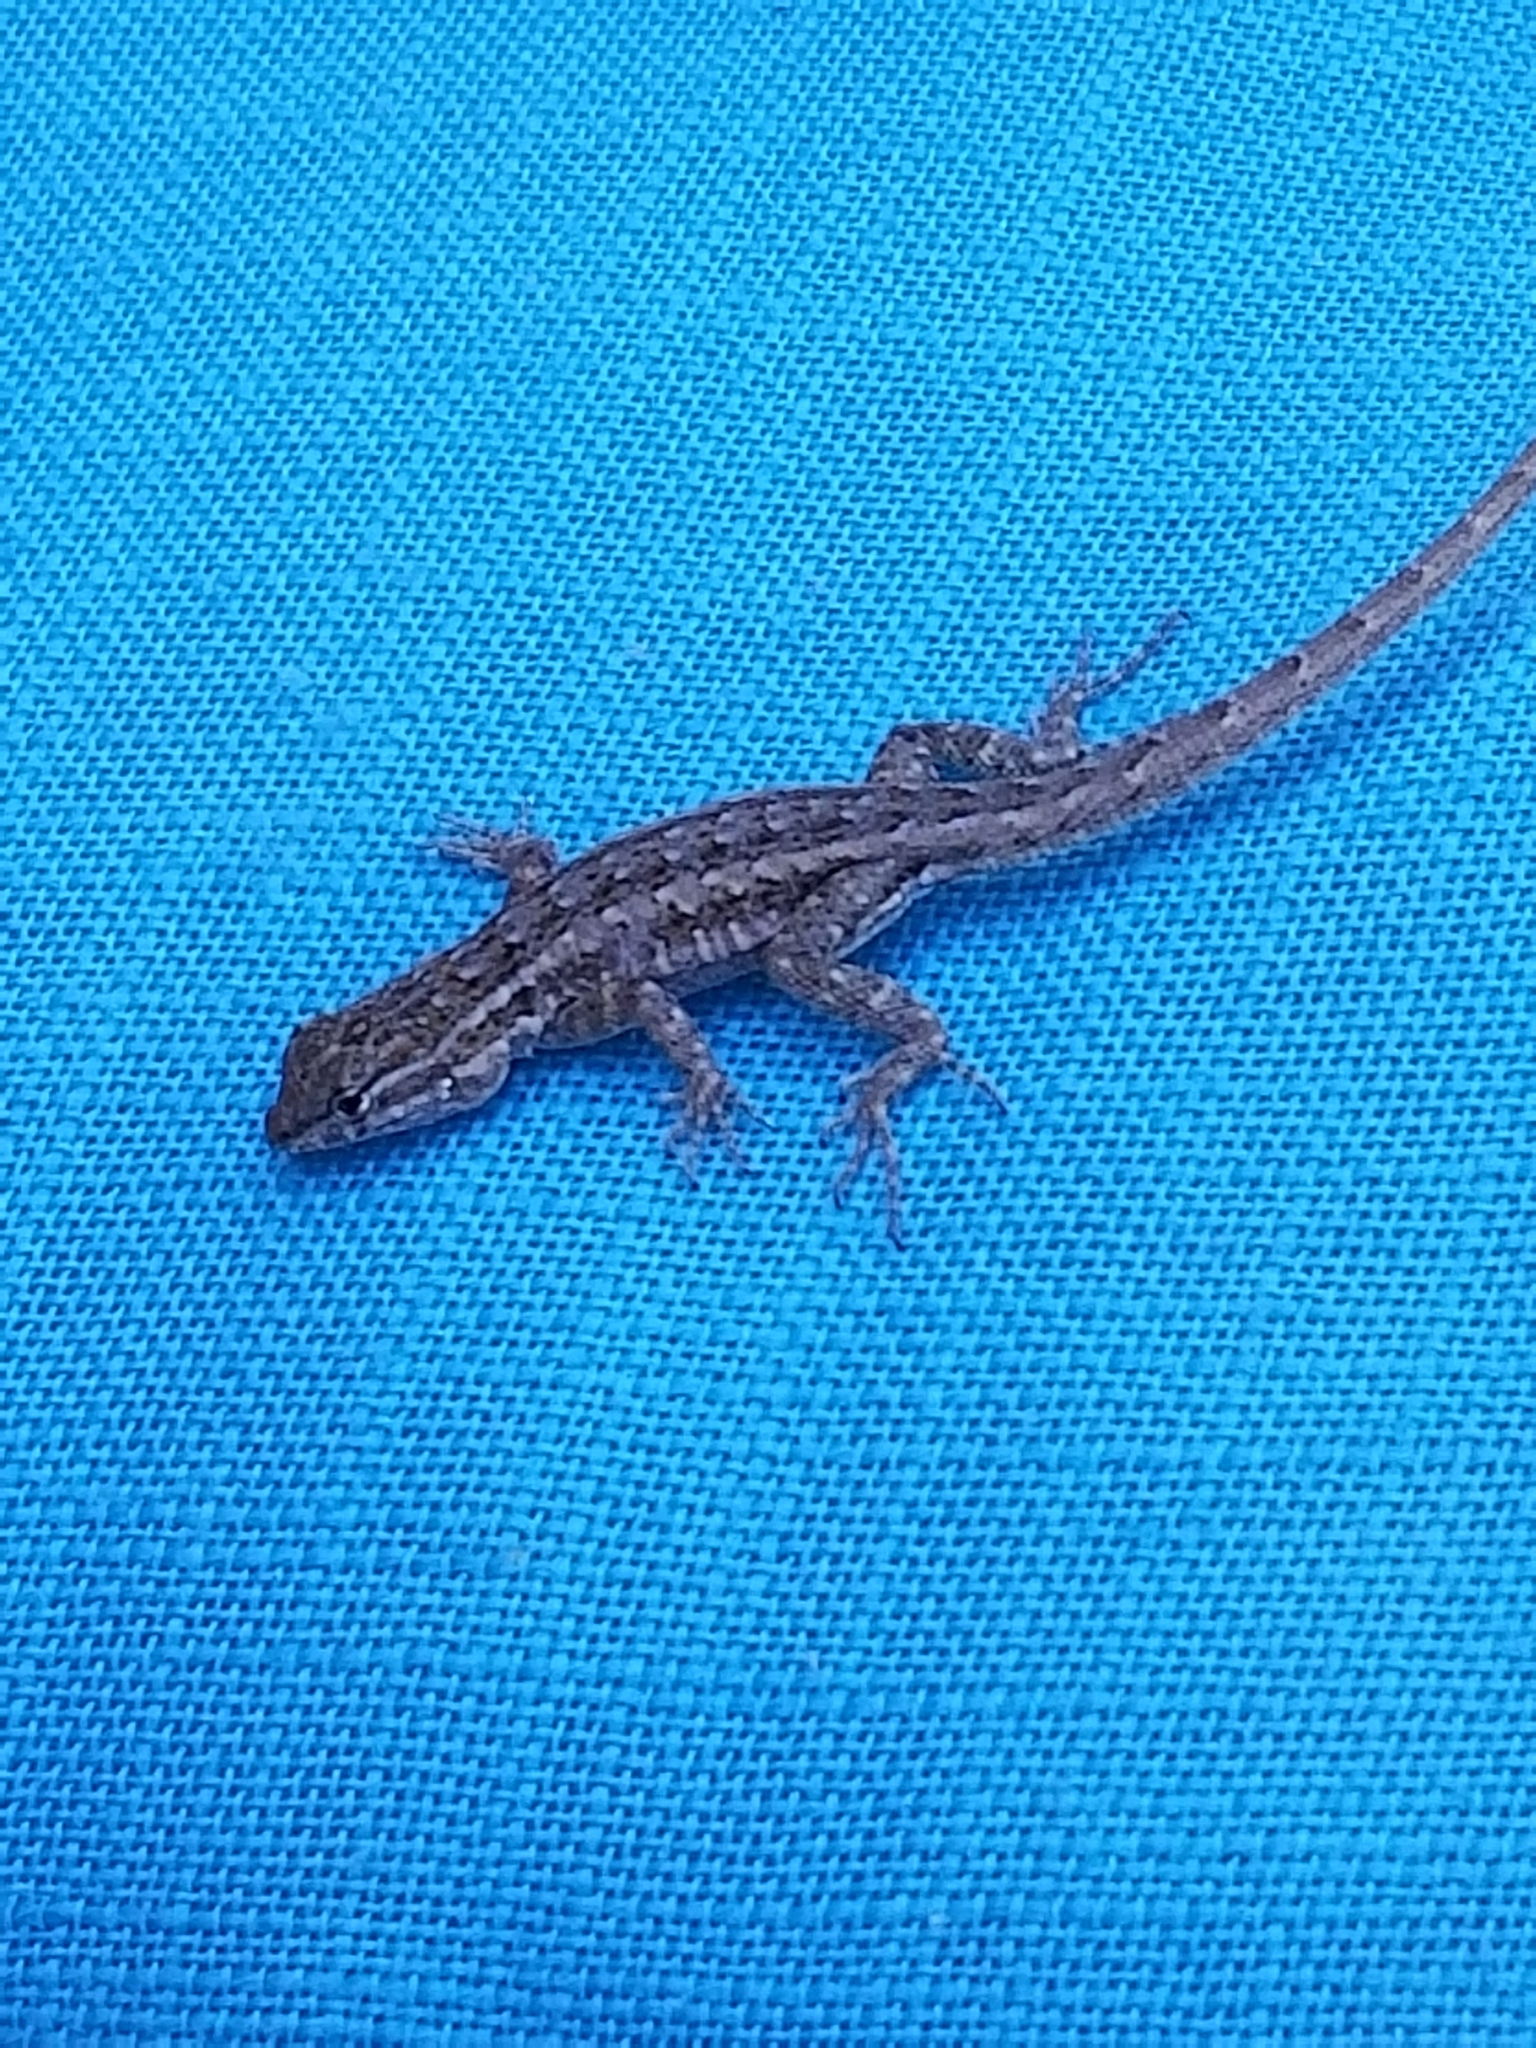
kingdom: Animalia
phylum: Chordata
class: Squamata
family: Phrynosomatidae
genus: Uta
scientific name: Uta stansburiana
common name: Side-blotched lizard
